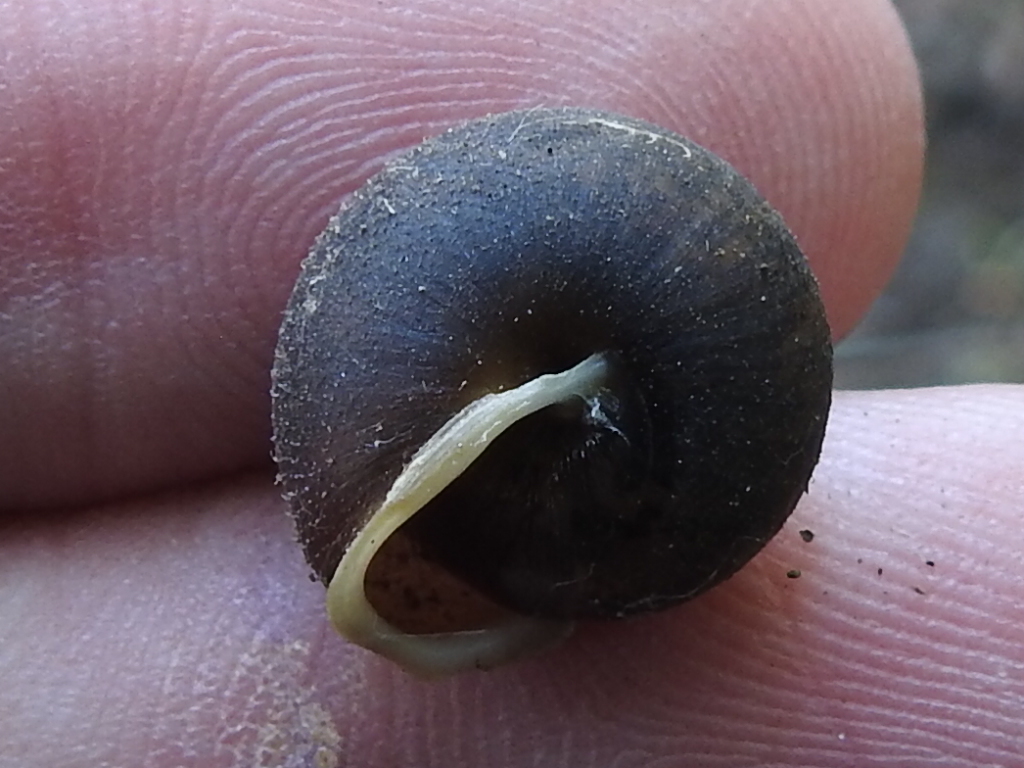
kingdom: Animalia
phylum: Mollusca
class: Gastropoda
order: Stylommatophora
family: Polygyridae
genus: Vespericola
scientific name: Vespericola columbianus
